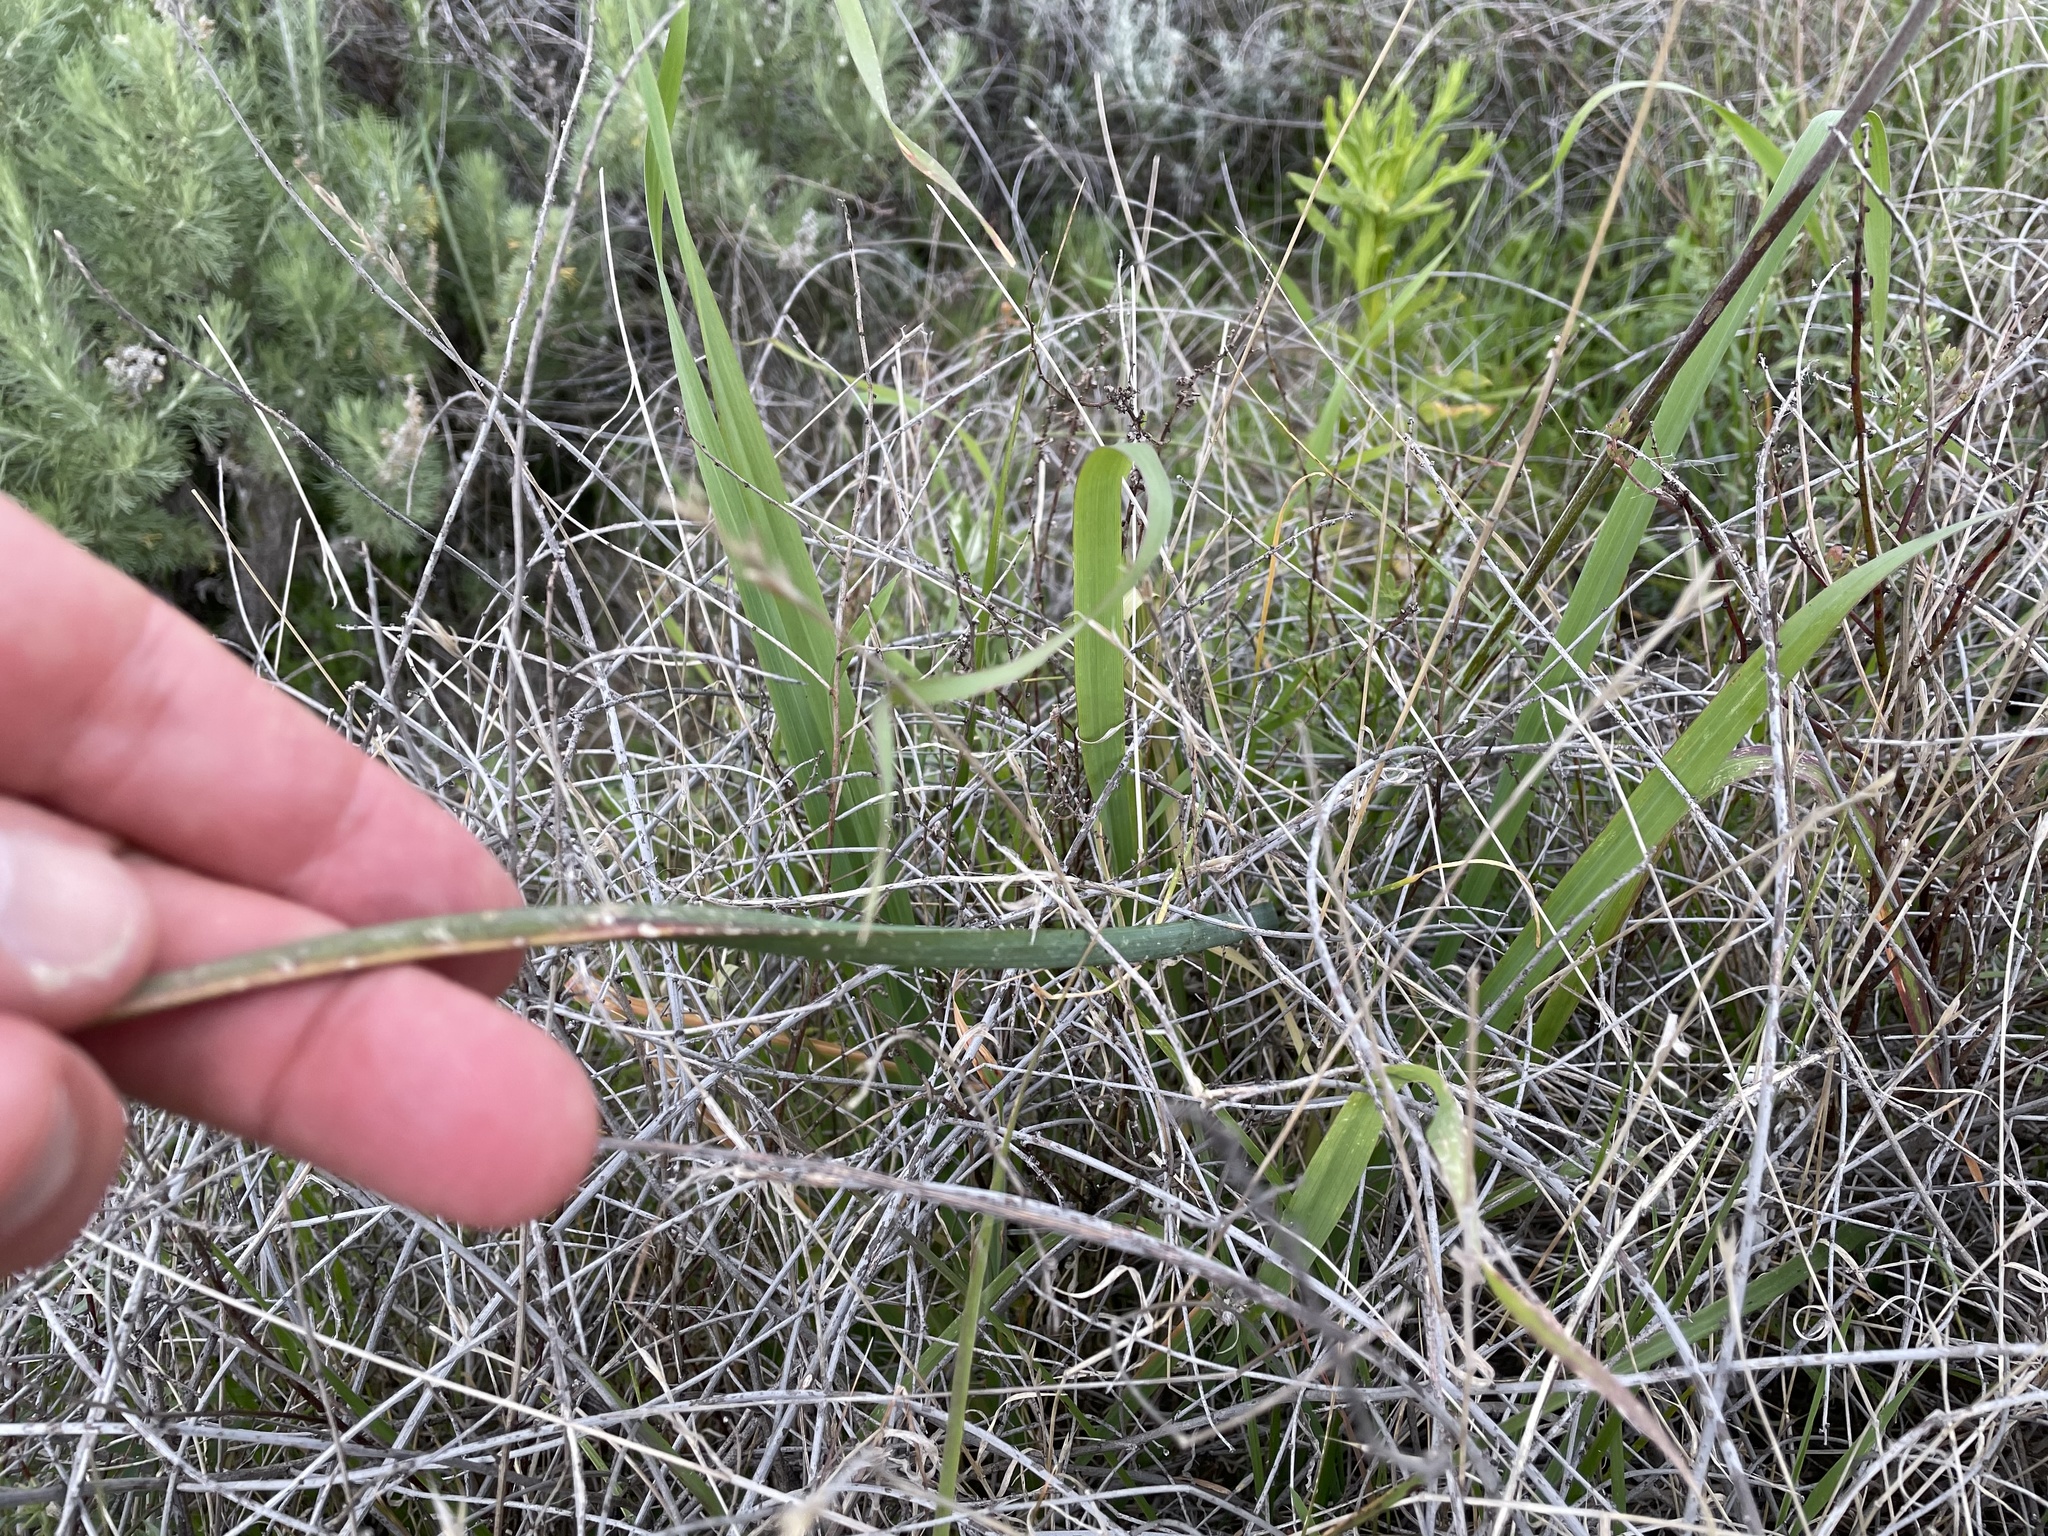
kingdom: Plantae
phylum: Tracheophyta
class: Liliopsida
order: Asparagales
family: Asparagaceae
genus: Dipterostemon
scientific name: Dipterostemon capitatus
